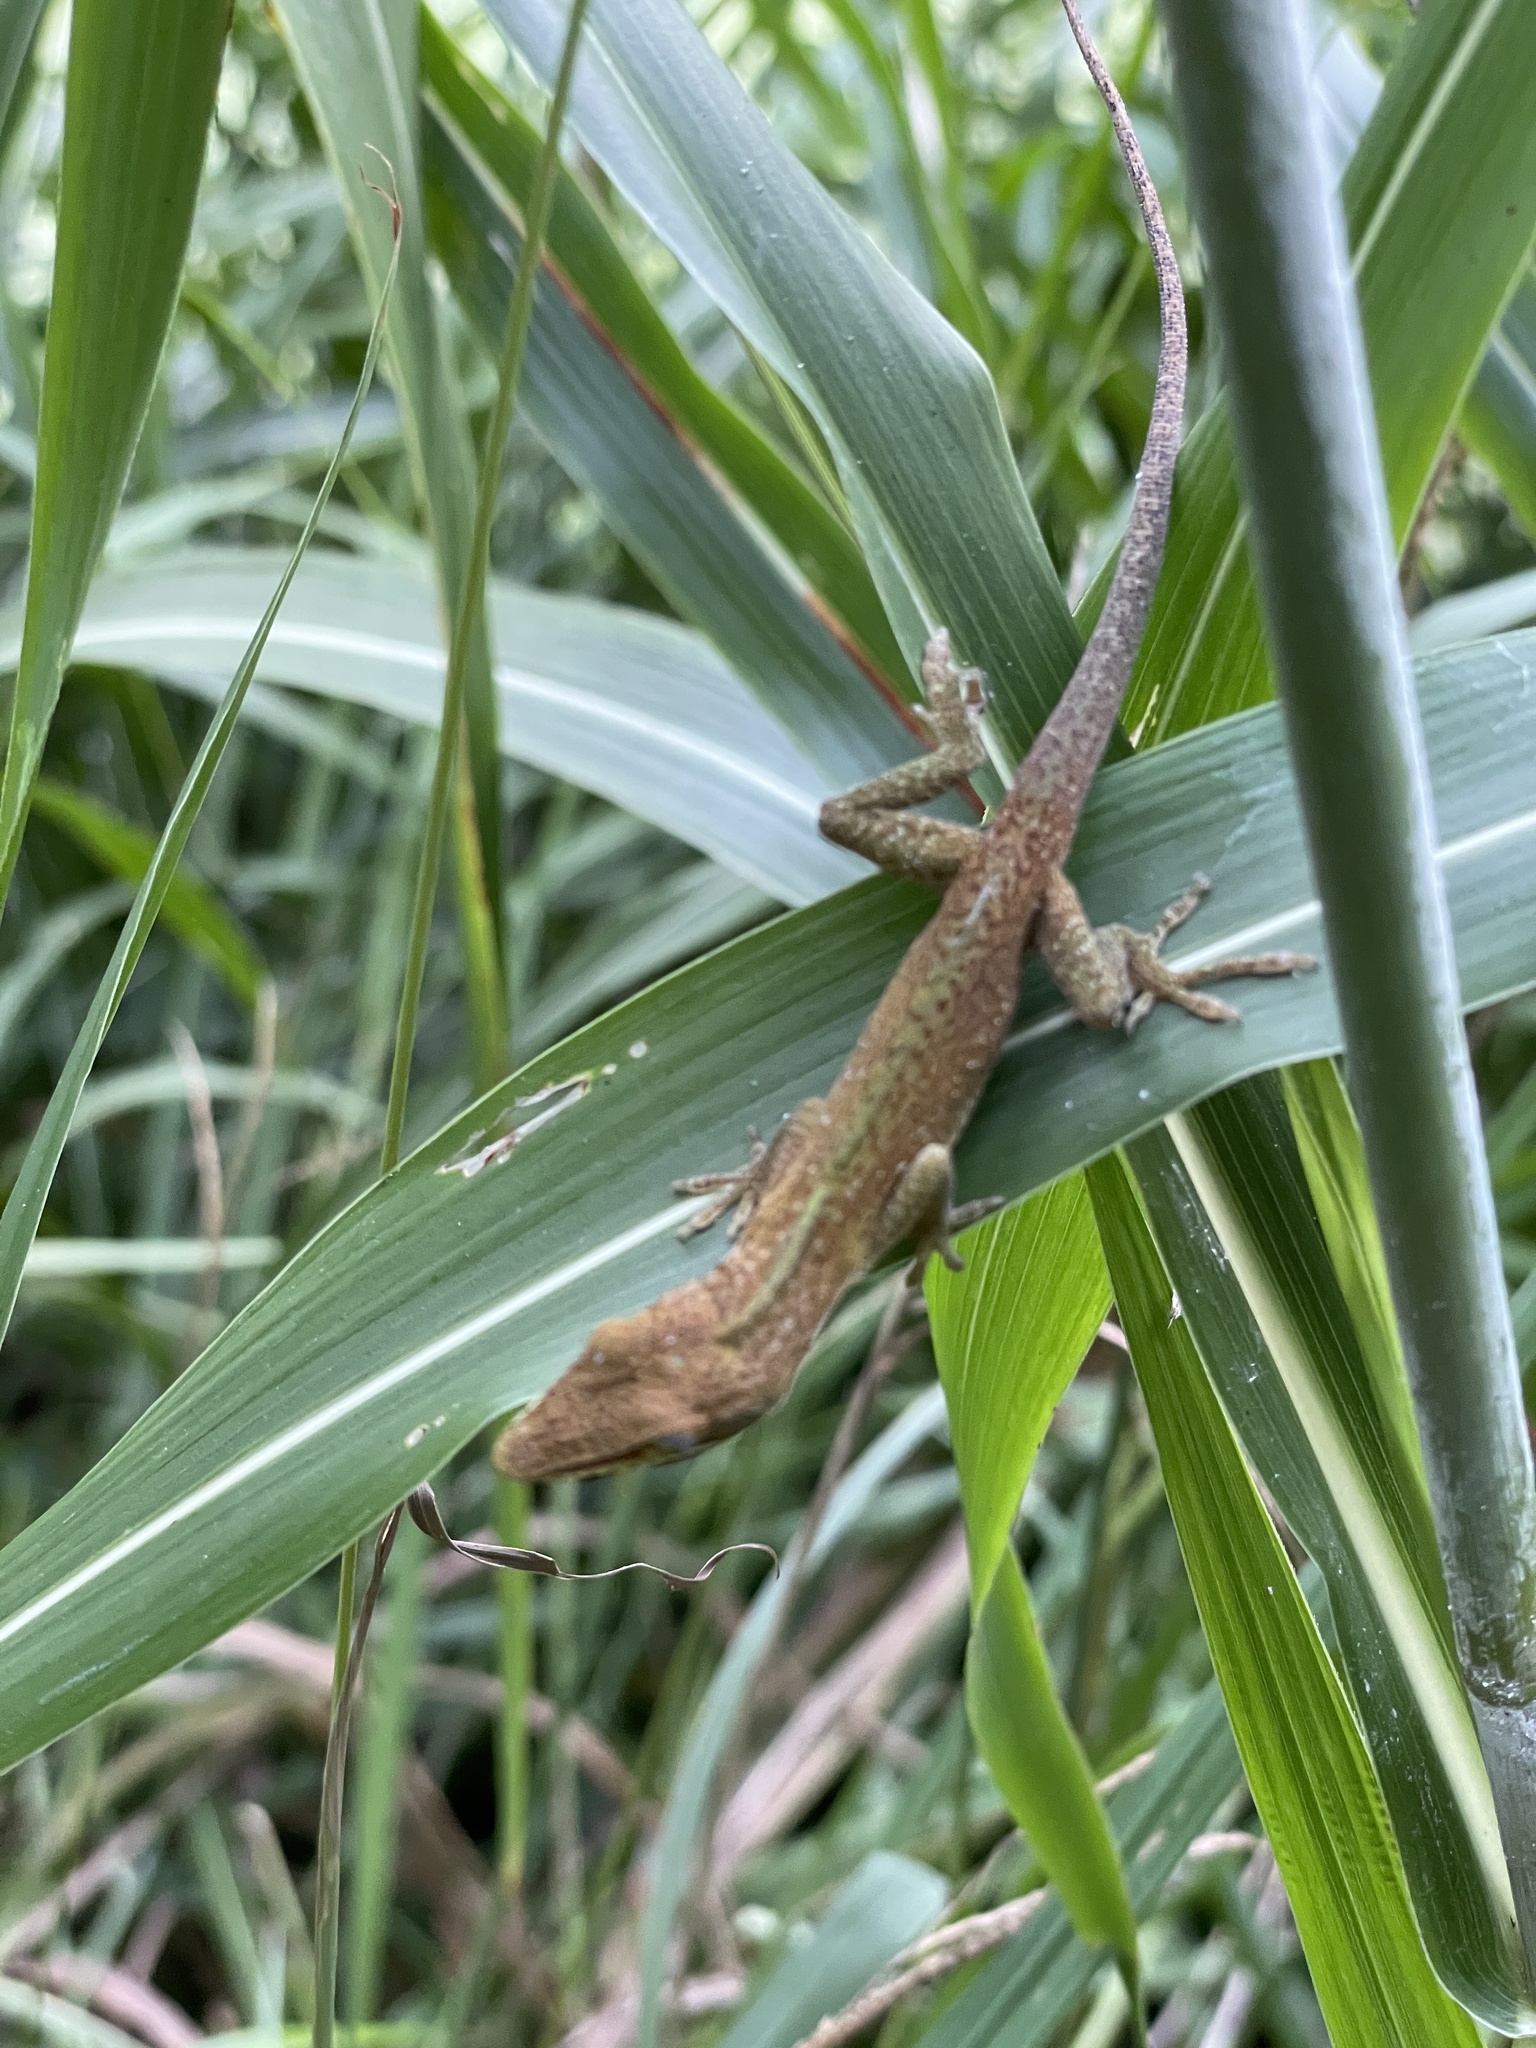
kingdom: Animalia
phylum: Chordata
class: Squamata
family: Dactyloidae
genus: Anolis
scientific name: Anolis carolinensis
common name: Green anole
